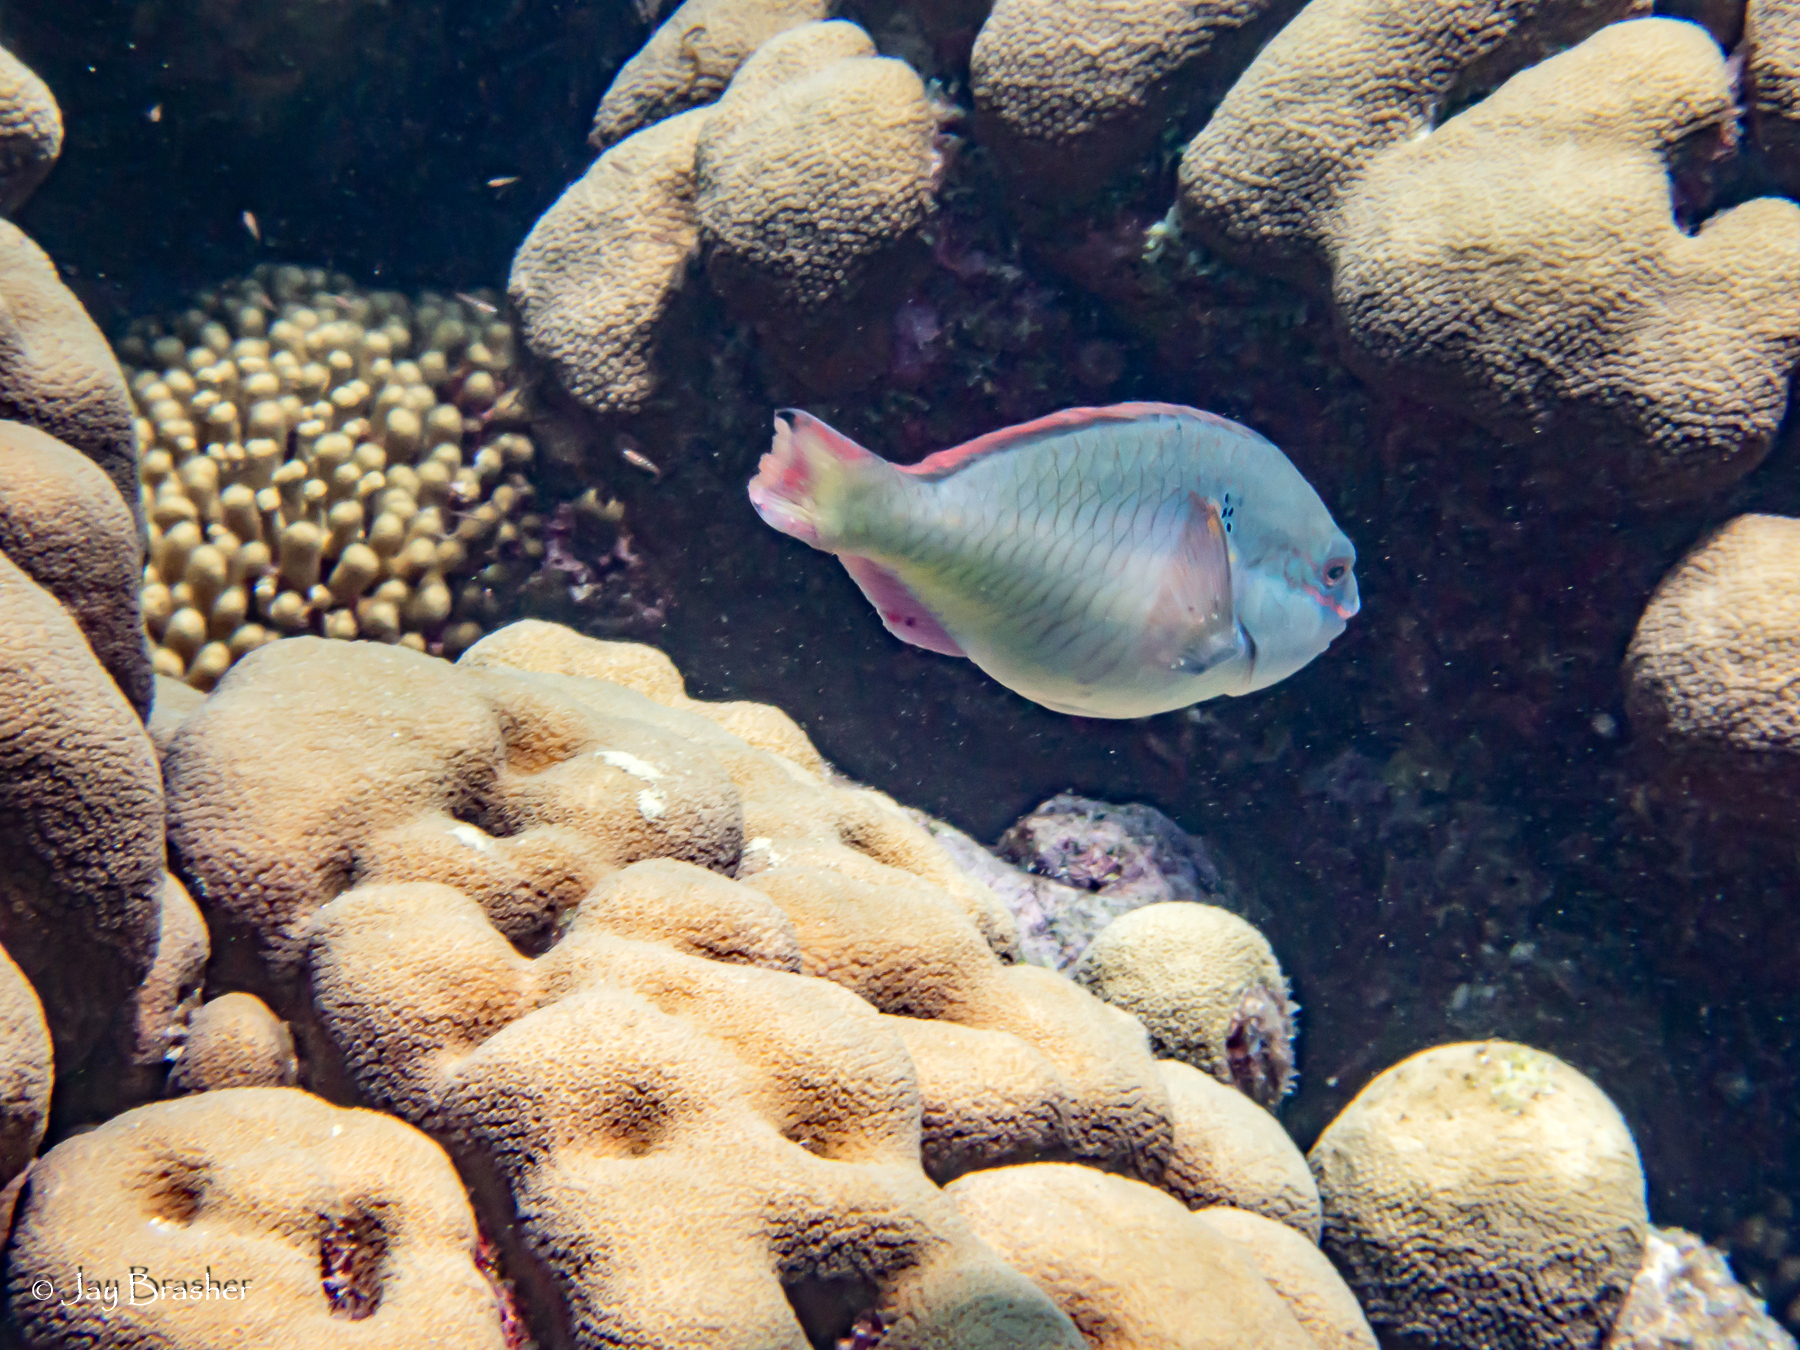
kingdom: Animalia
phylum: Chordata
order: Perciformes
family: Scaridae
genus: Sparisoma
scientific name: Sparisoma aurofrenatum
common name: Redband parrotfish
